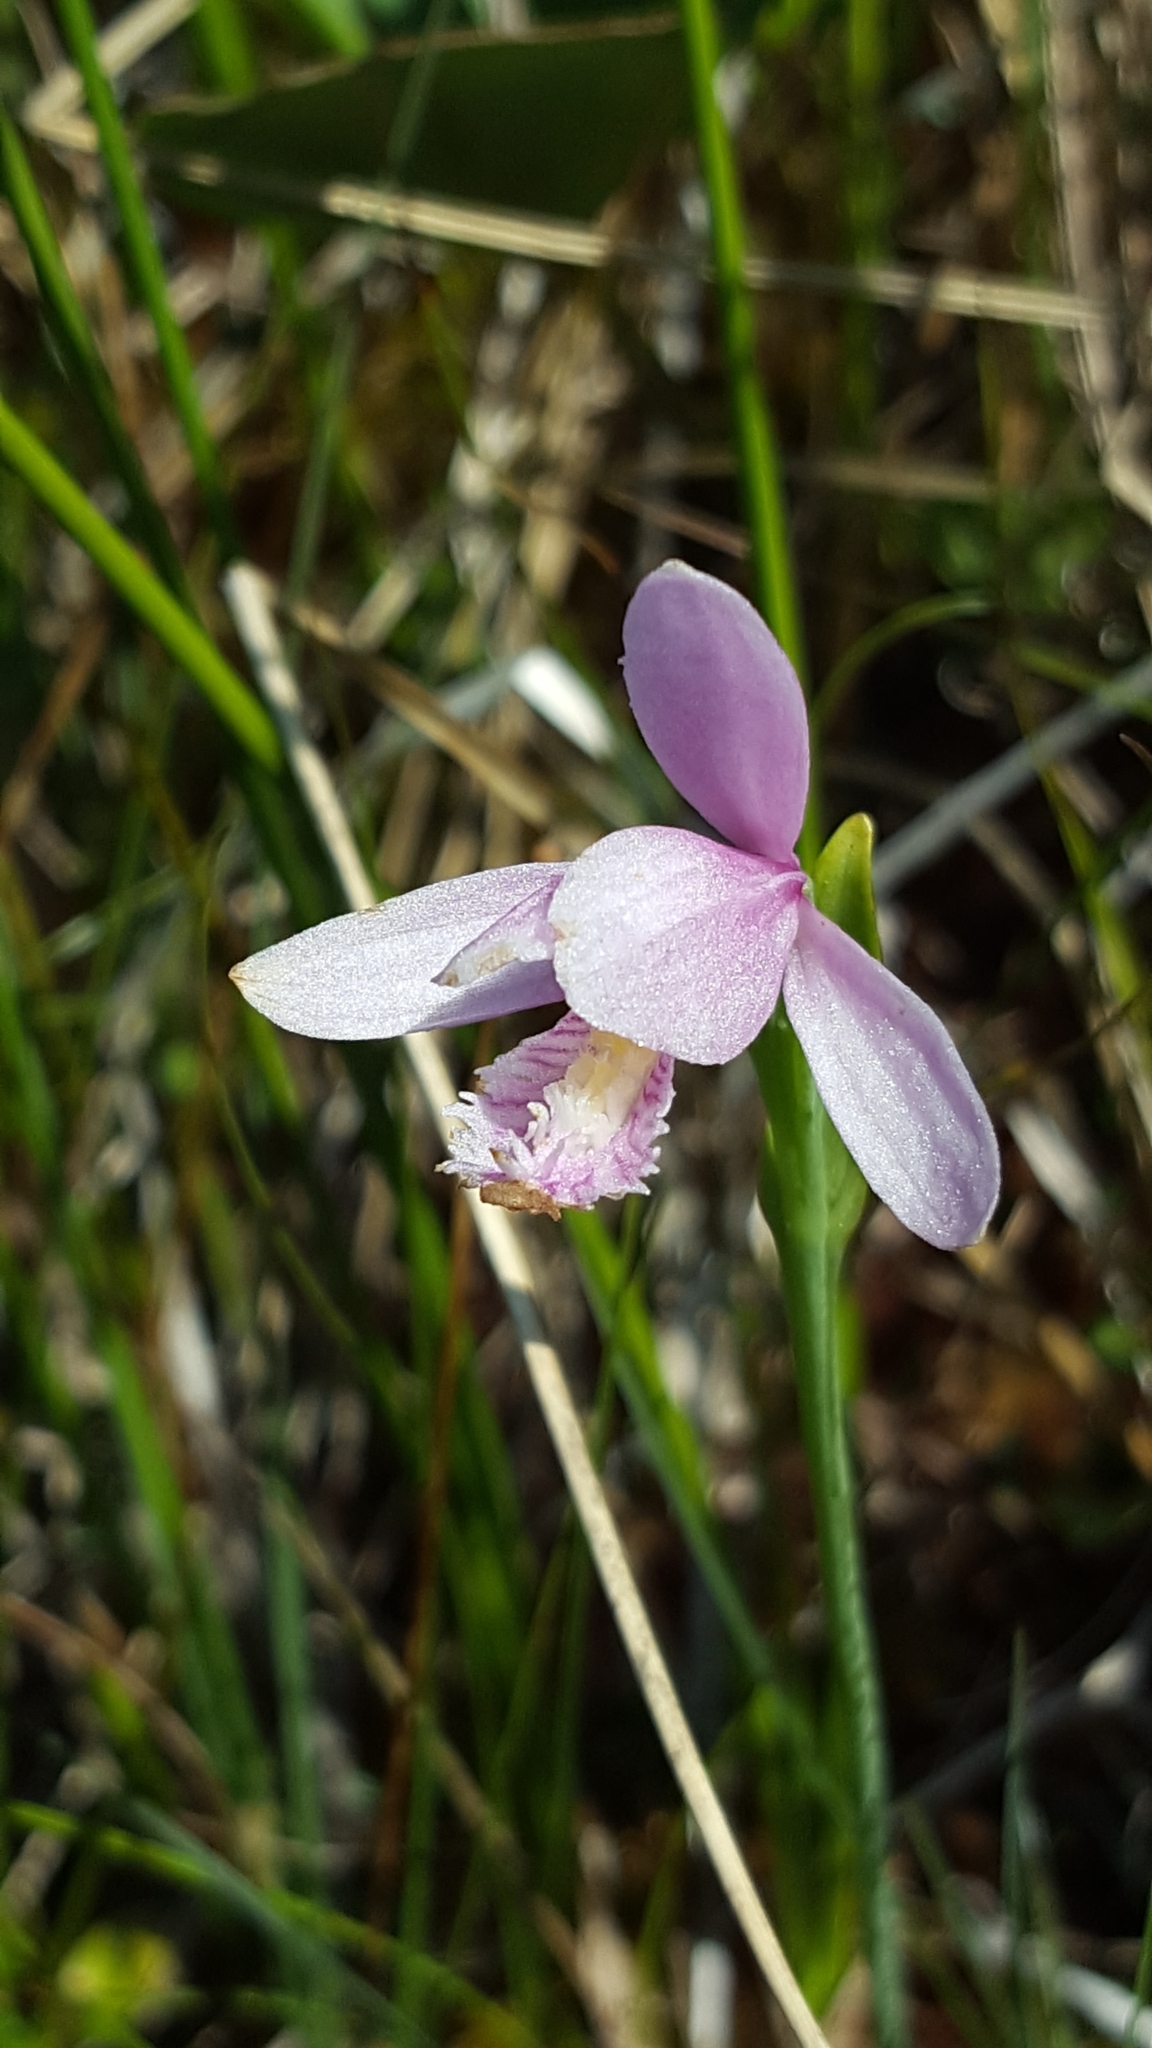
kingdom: Plantae
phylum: Tracheophyta
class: Liliopsida
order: Asparagales
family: Orchidaceae
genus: Pogonia
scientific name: Pogonia ophioglossoides
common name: Rose pogonia
